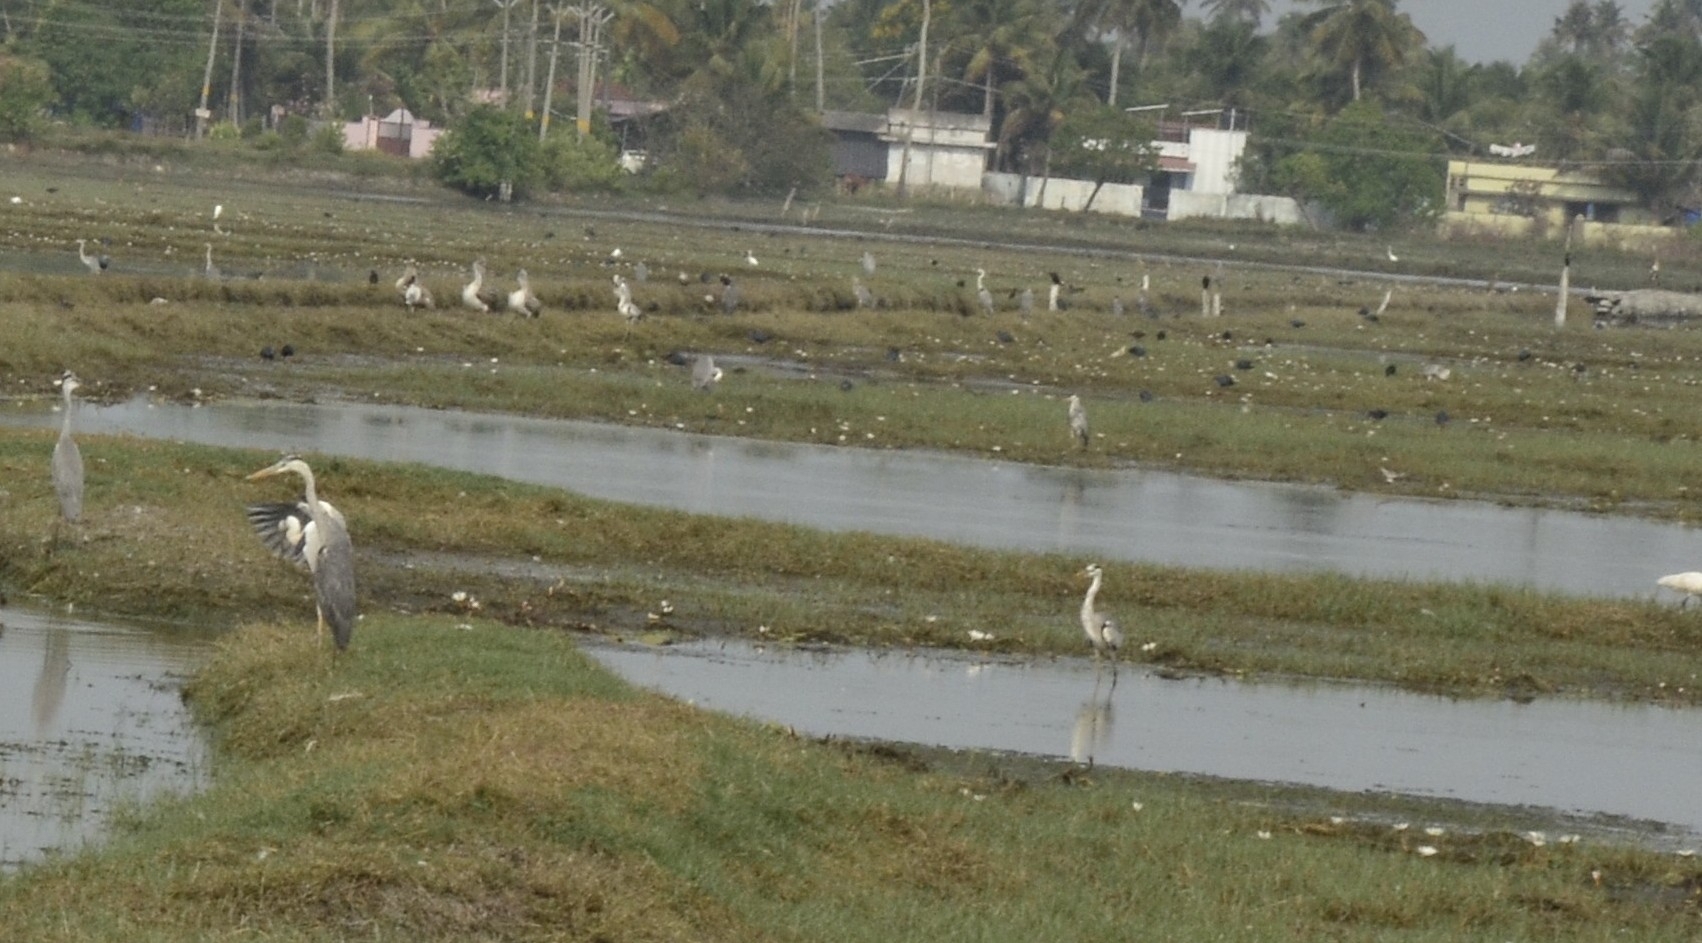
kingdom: Animalia
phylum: Chordata
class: Aves
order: Pelecaniformes
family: Ardeidae
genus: Ardea
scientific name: Ardea cinerea
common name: Grey heron
